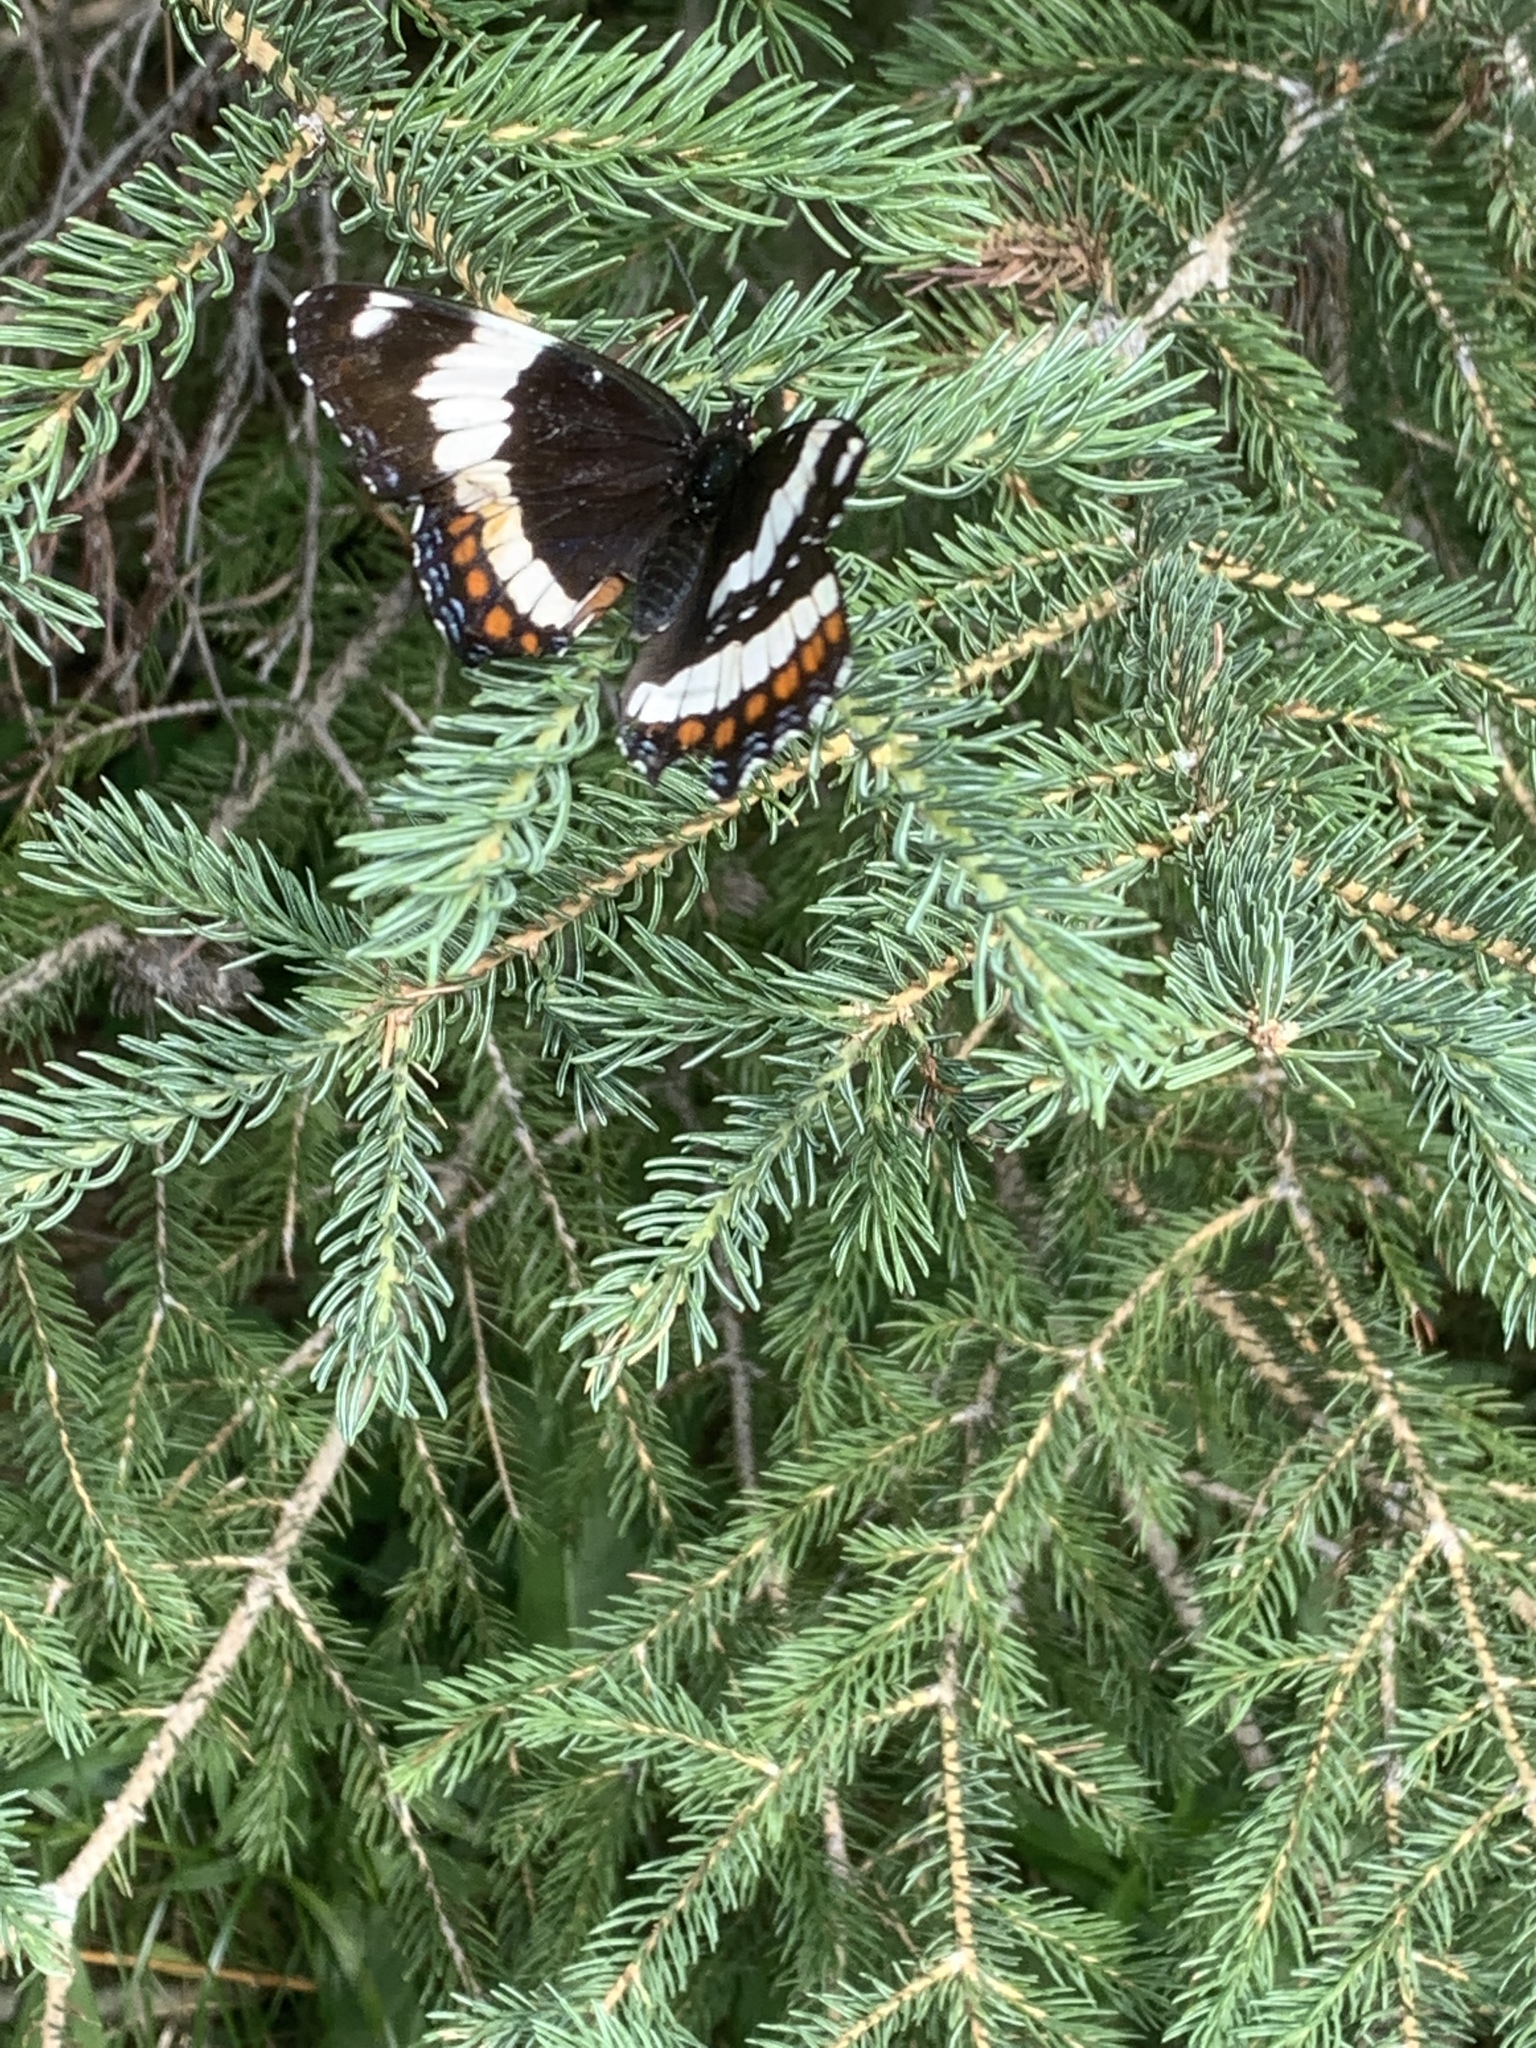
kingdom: Animalia
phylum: Arthropoda
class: Insecta
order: Lepidoptera
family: Nymphalidae
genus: Limenitis
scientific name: Limenitis arthemis
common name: Red-spotted admiral
